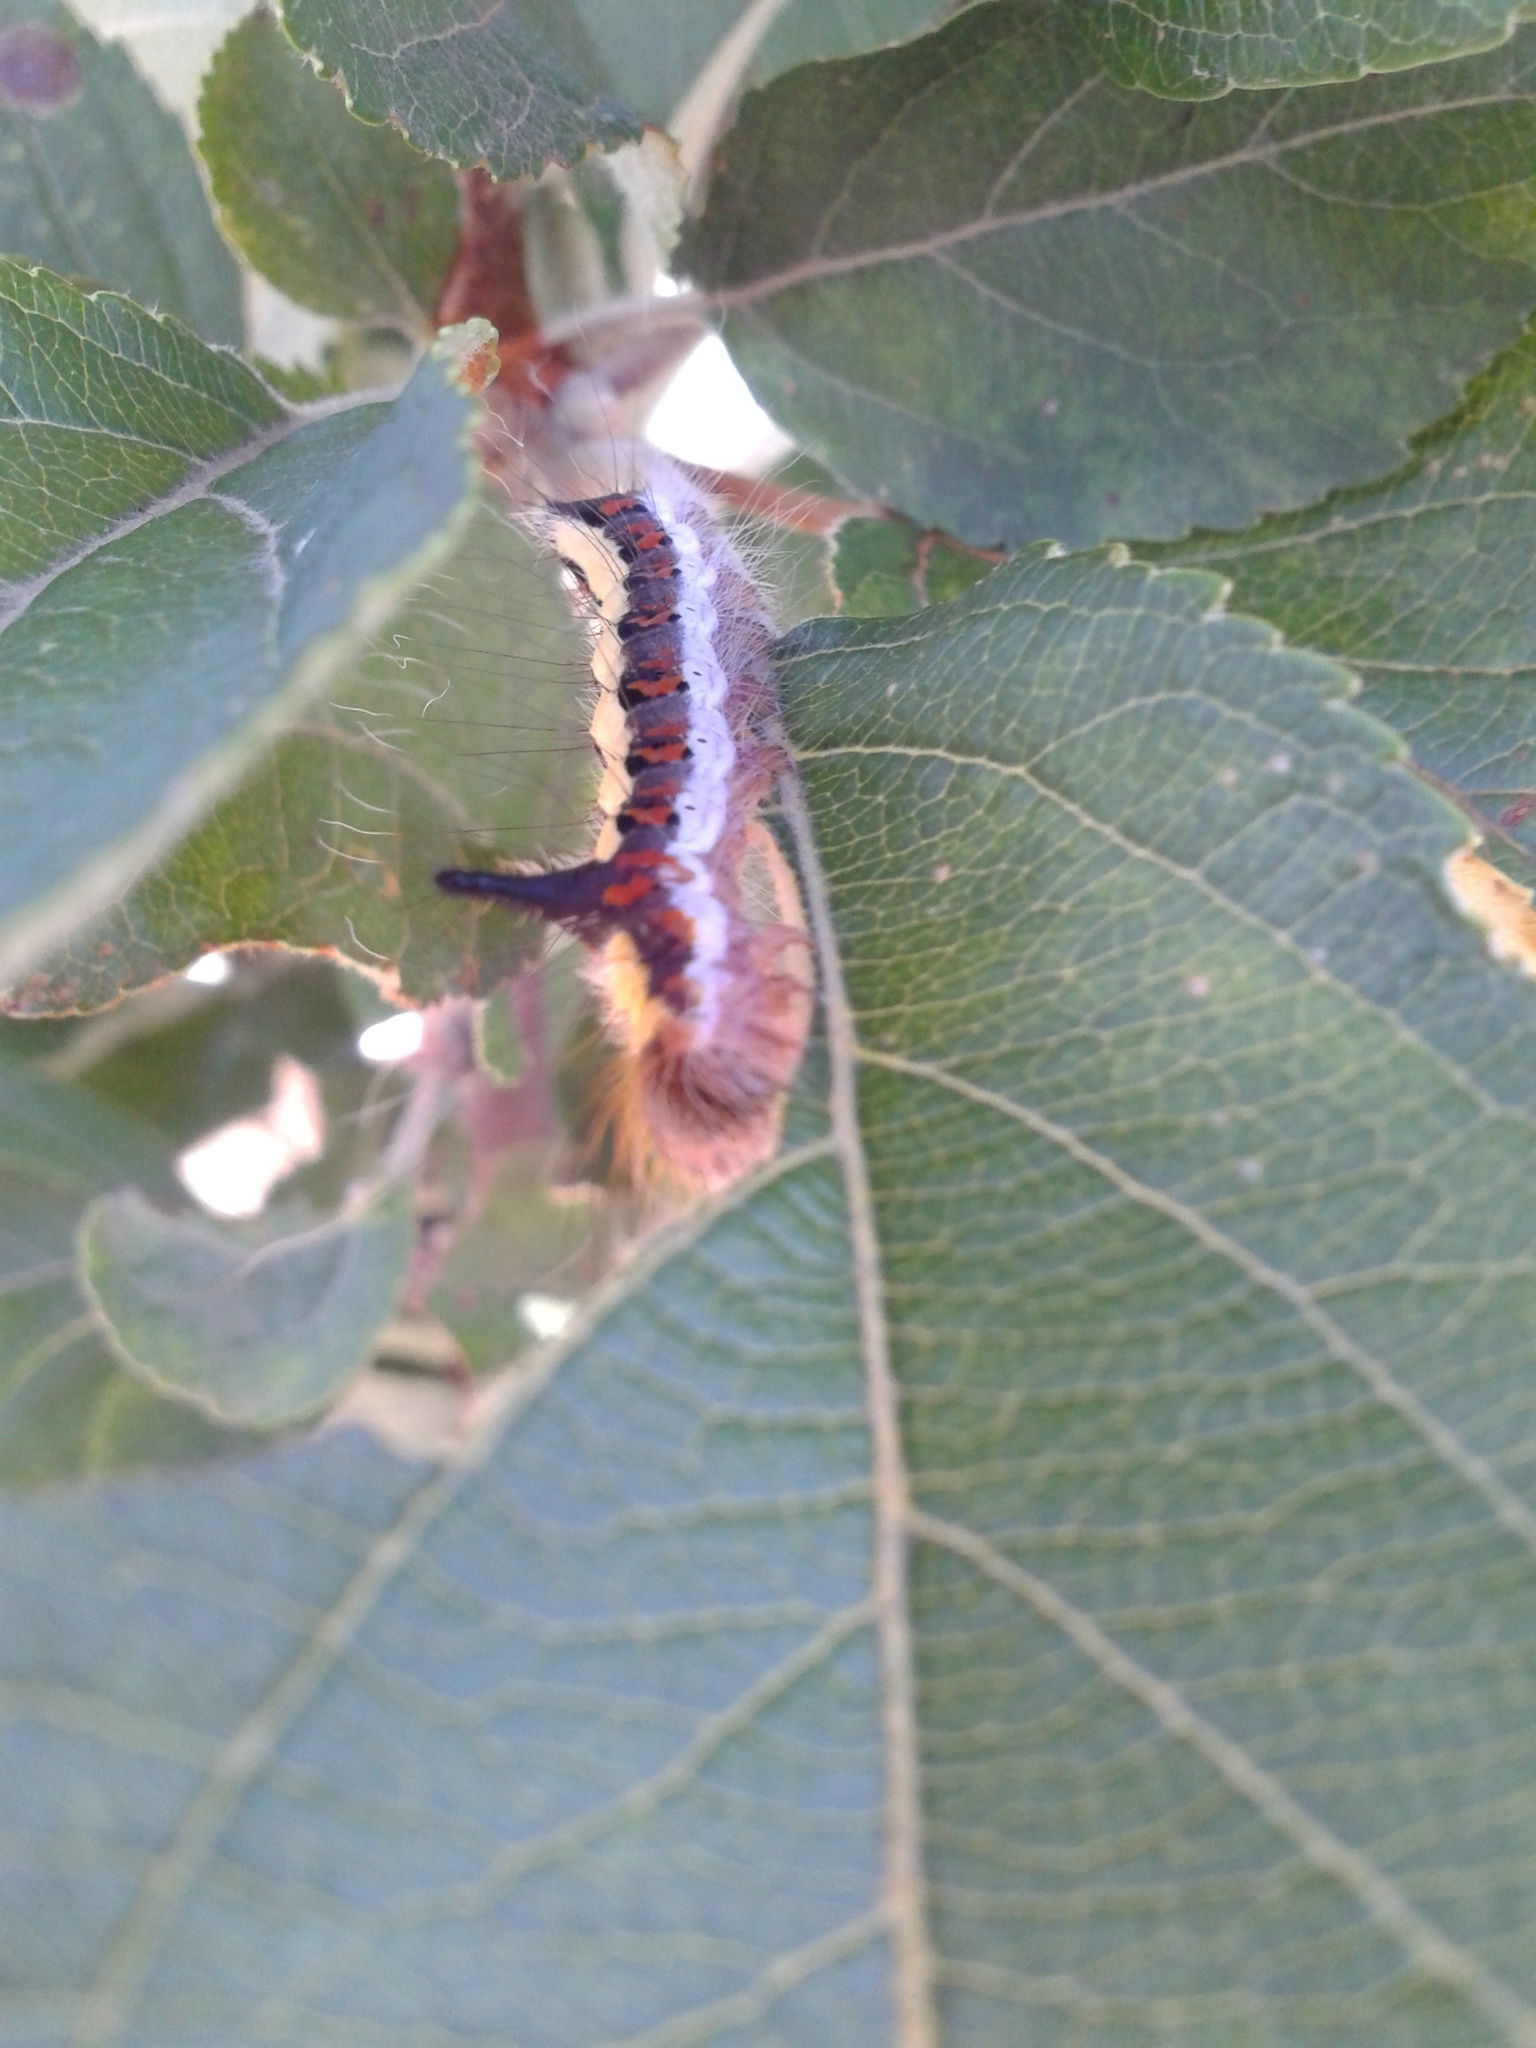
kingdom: Animalia
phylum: Arthropoda
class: Insecta
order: Lepidoptera
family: Noctuidae
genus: Acronicta
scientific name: Acronicta psi
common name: Grey dagger
